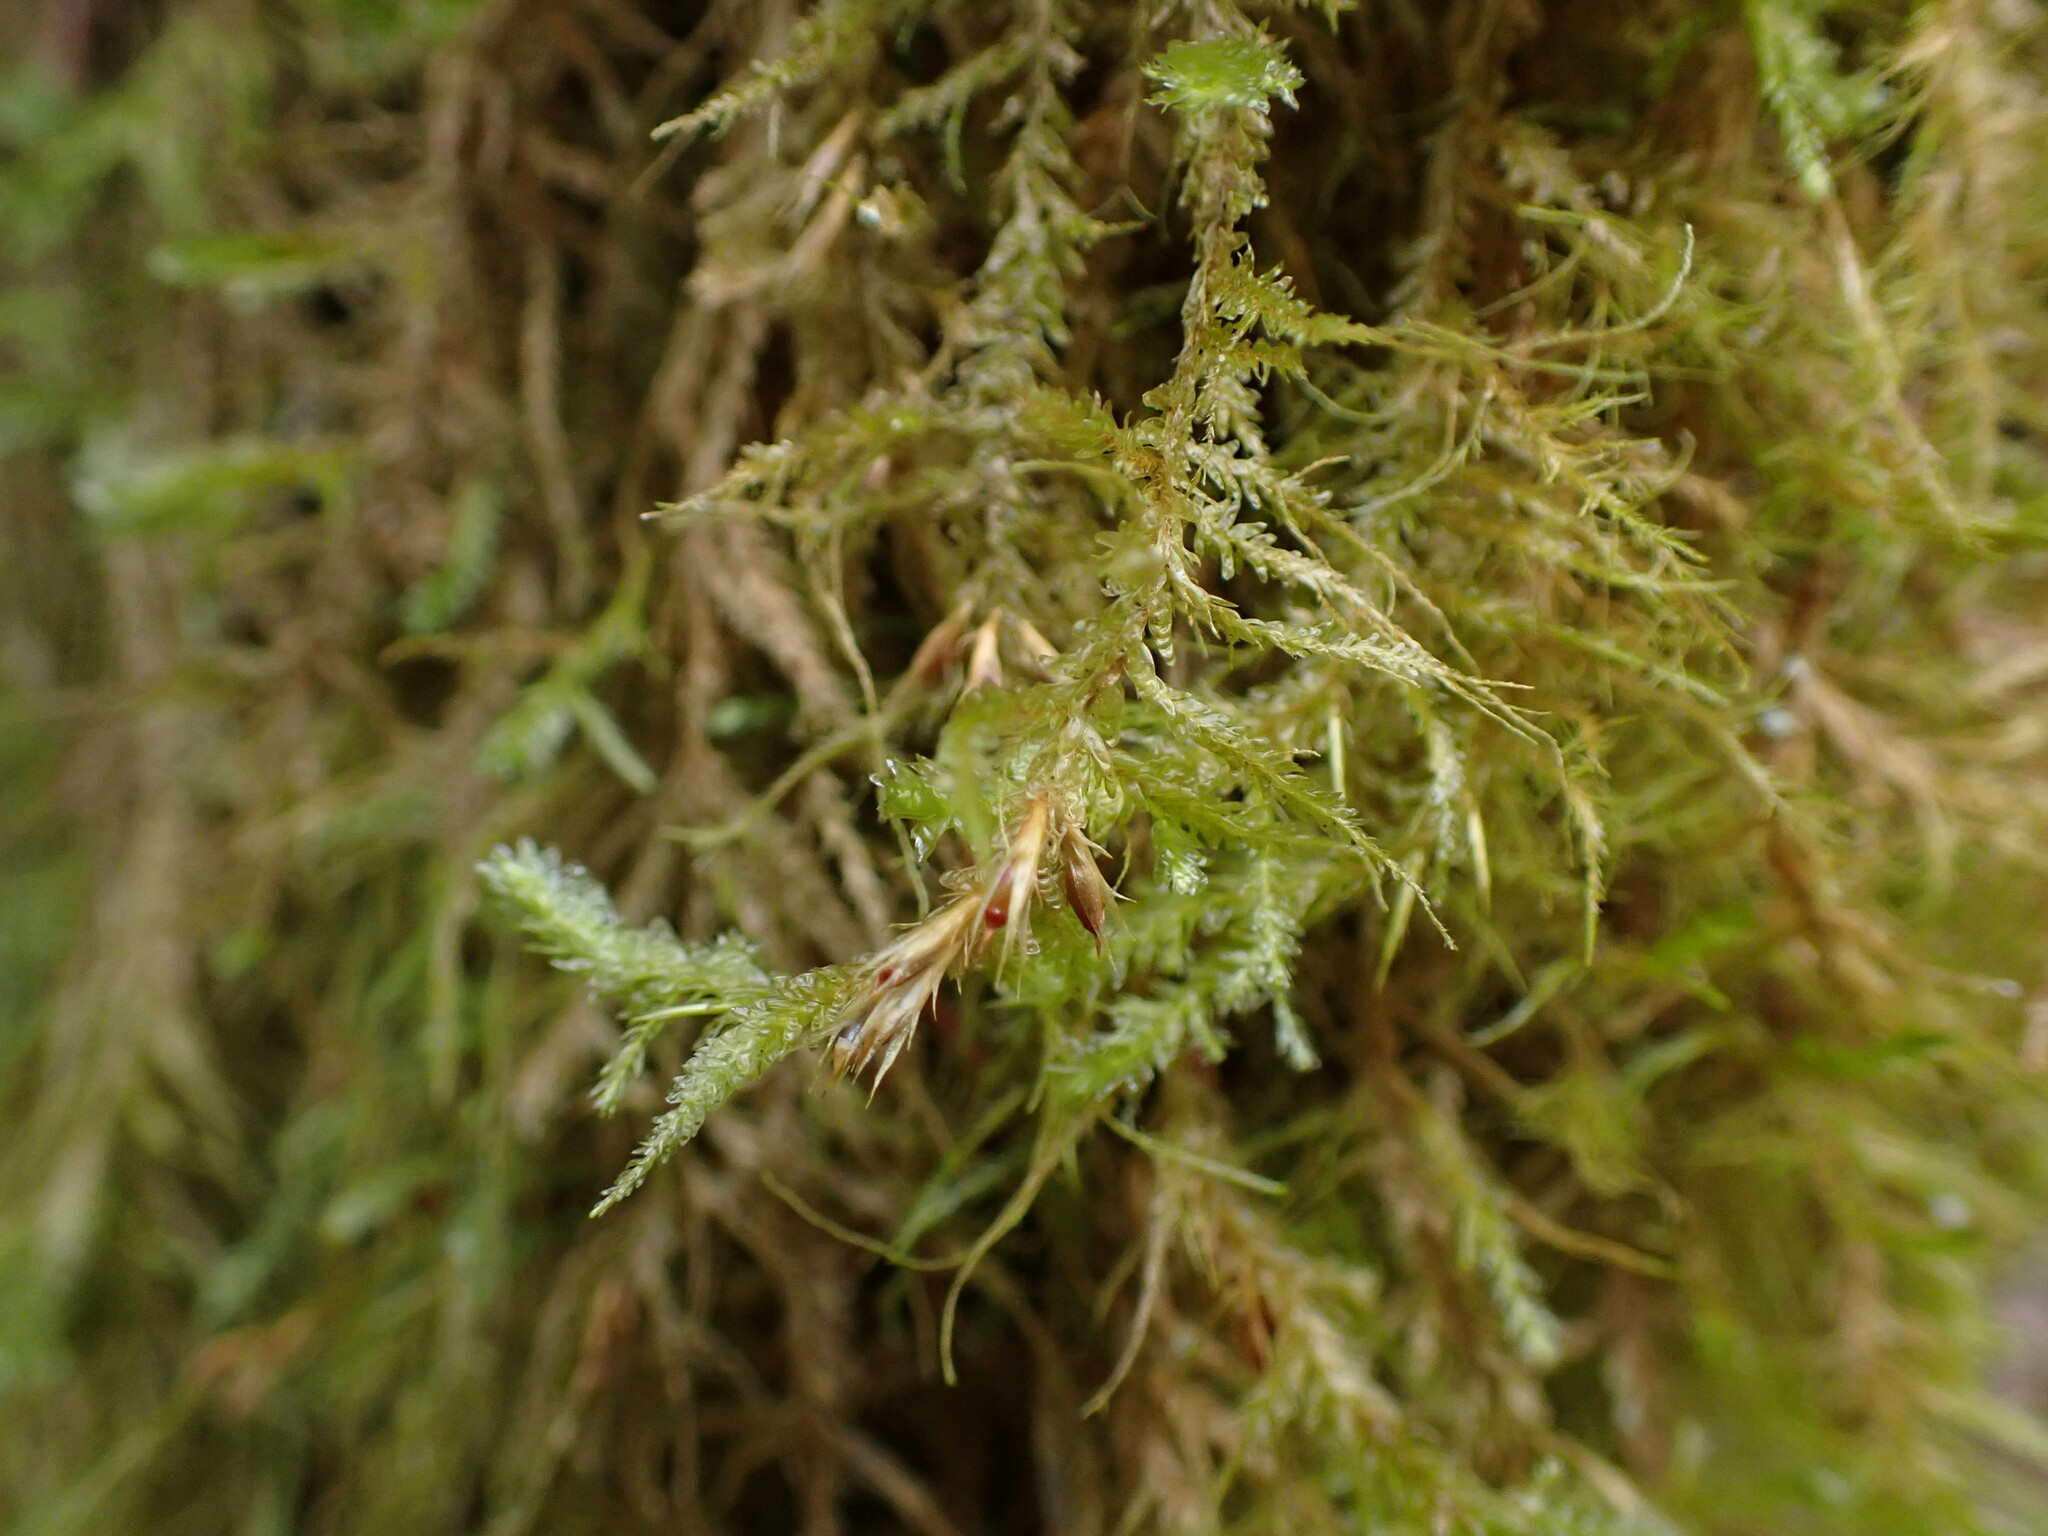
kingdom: Plantae
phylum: Bryophyta
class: Bryopsida
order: Hypnales
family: Neckeraceae
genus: Metaneckera
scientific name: Metaneckera menziesii
